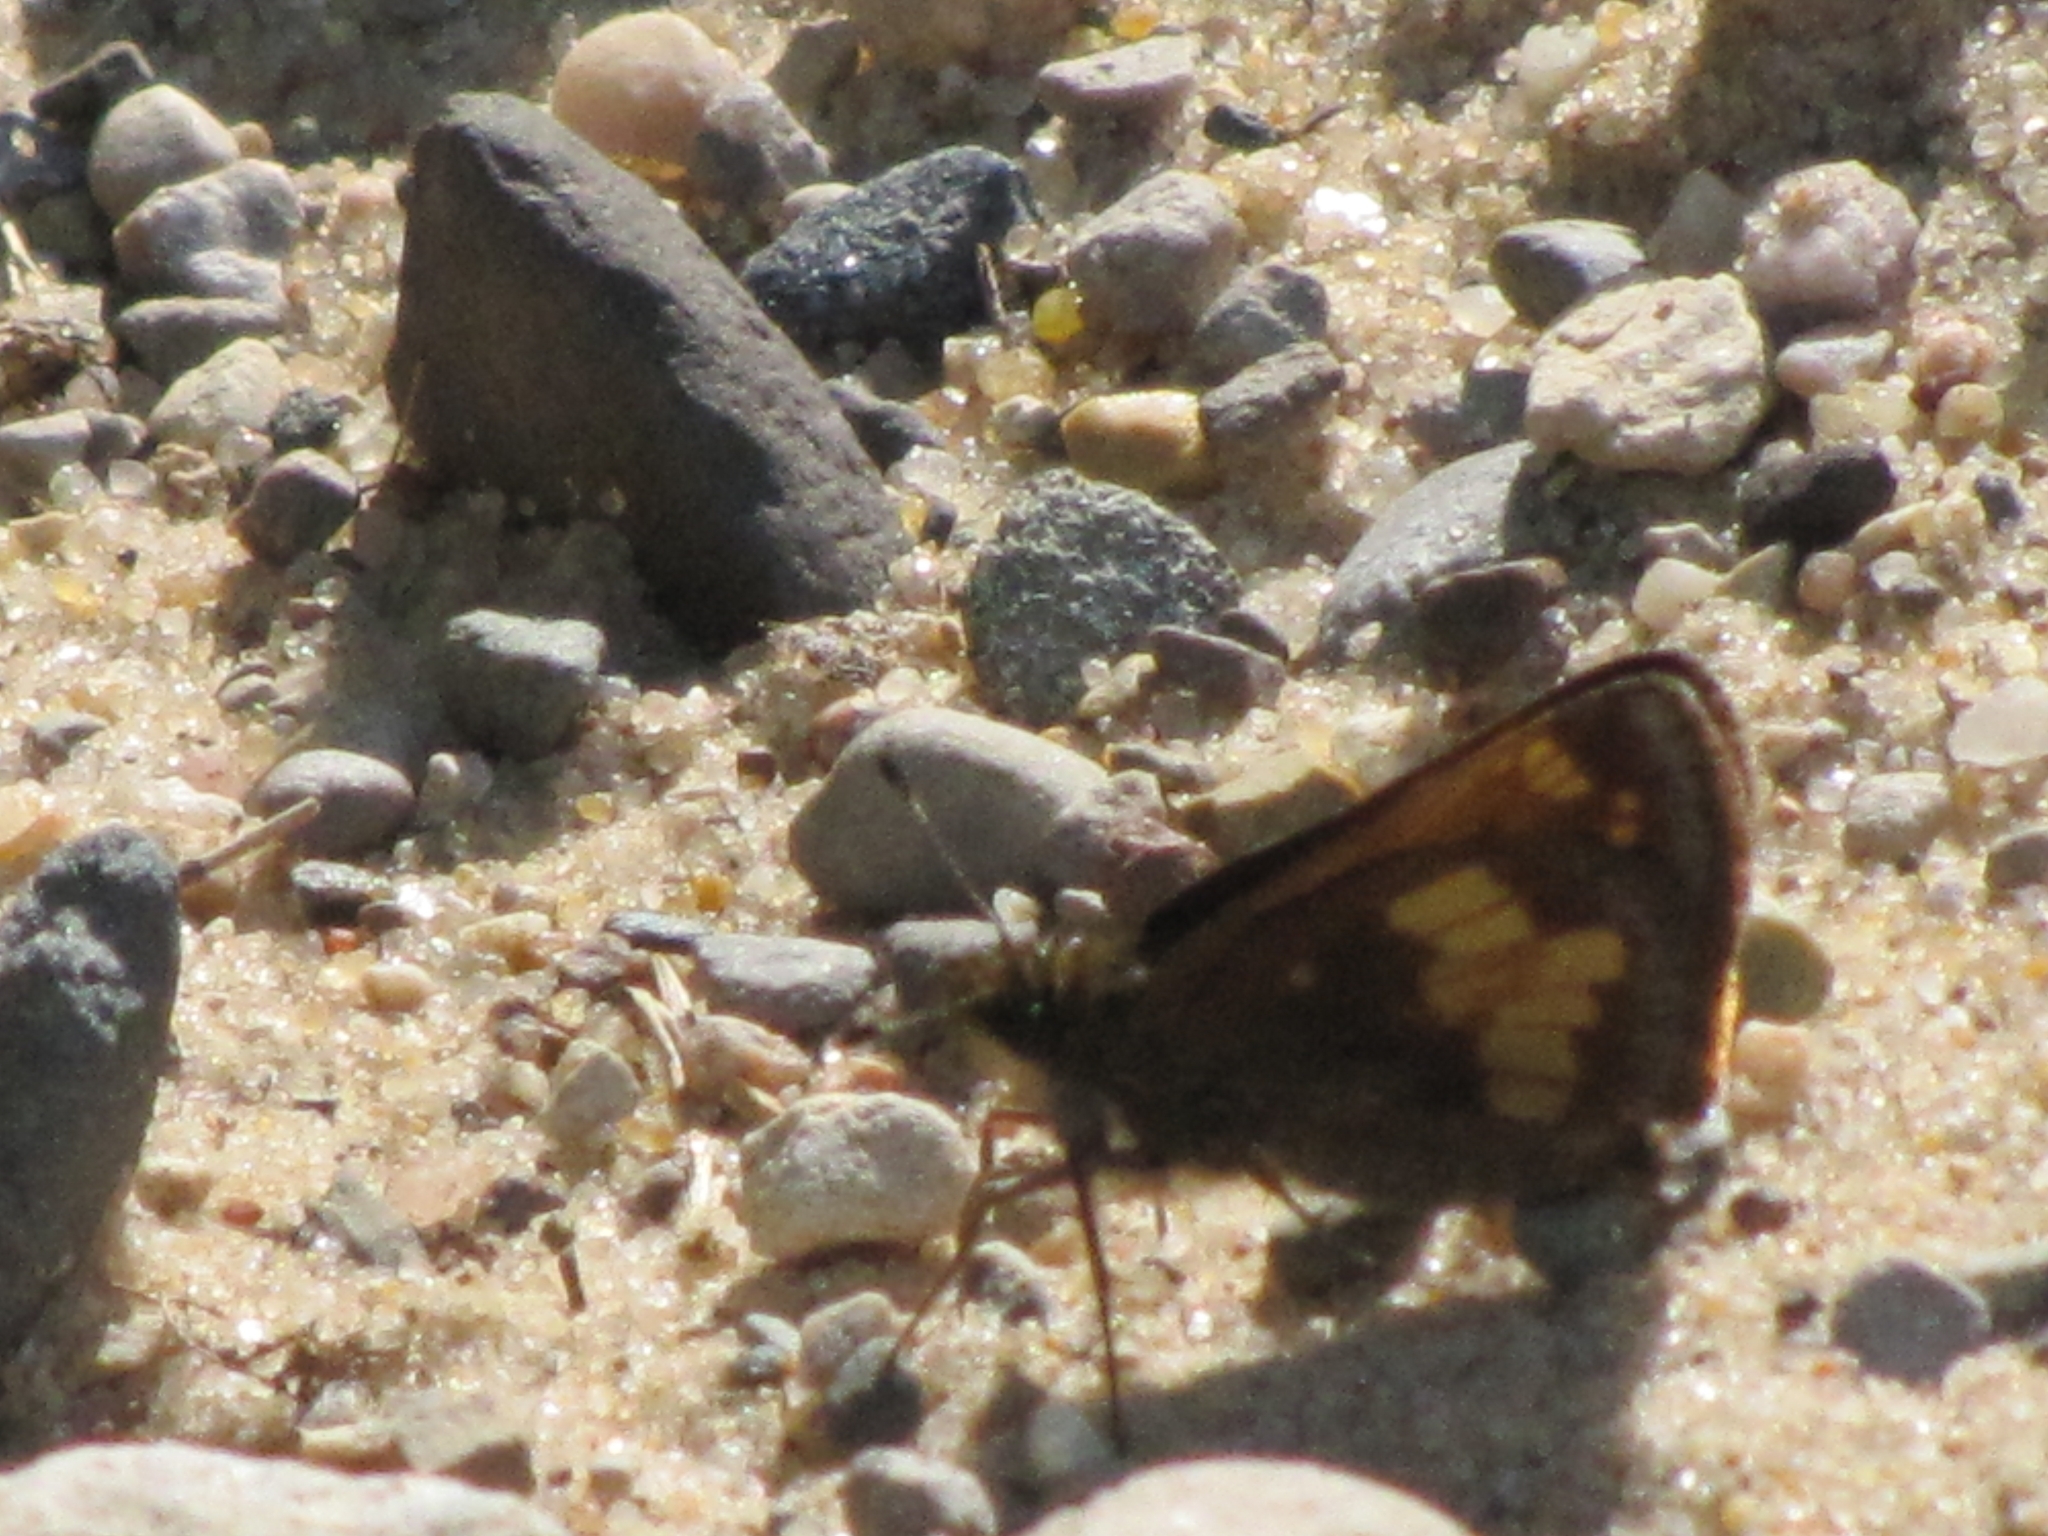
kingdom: Animalia
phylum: Arthropoda
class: Insecta
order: Lepidoptera
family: Hesperiidae
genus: Lon
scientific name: Lon hobomok
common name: Hobomok skipper
